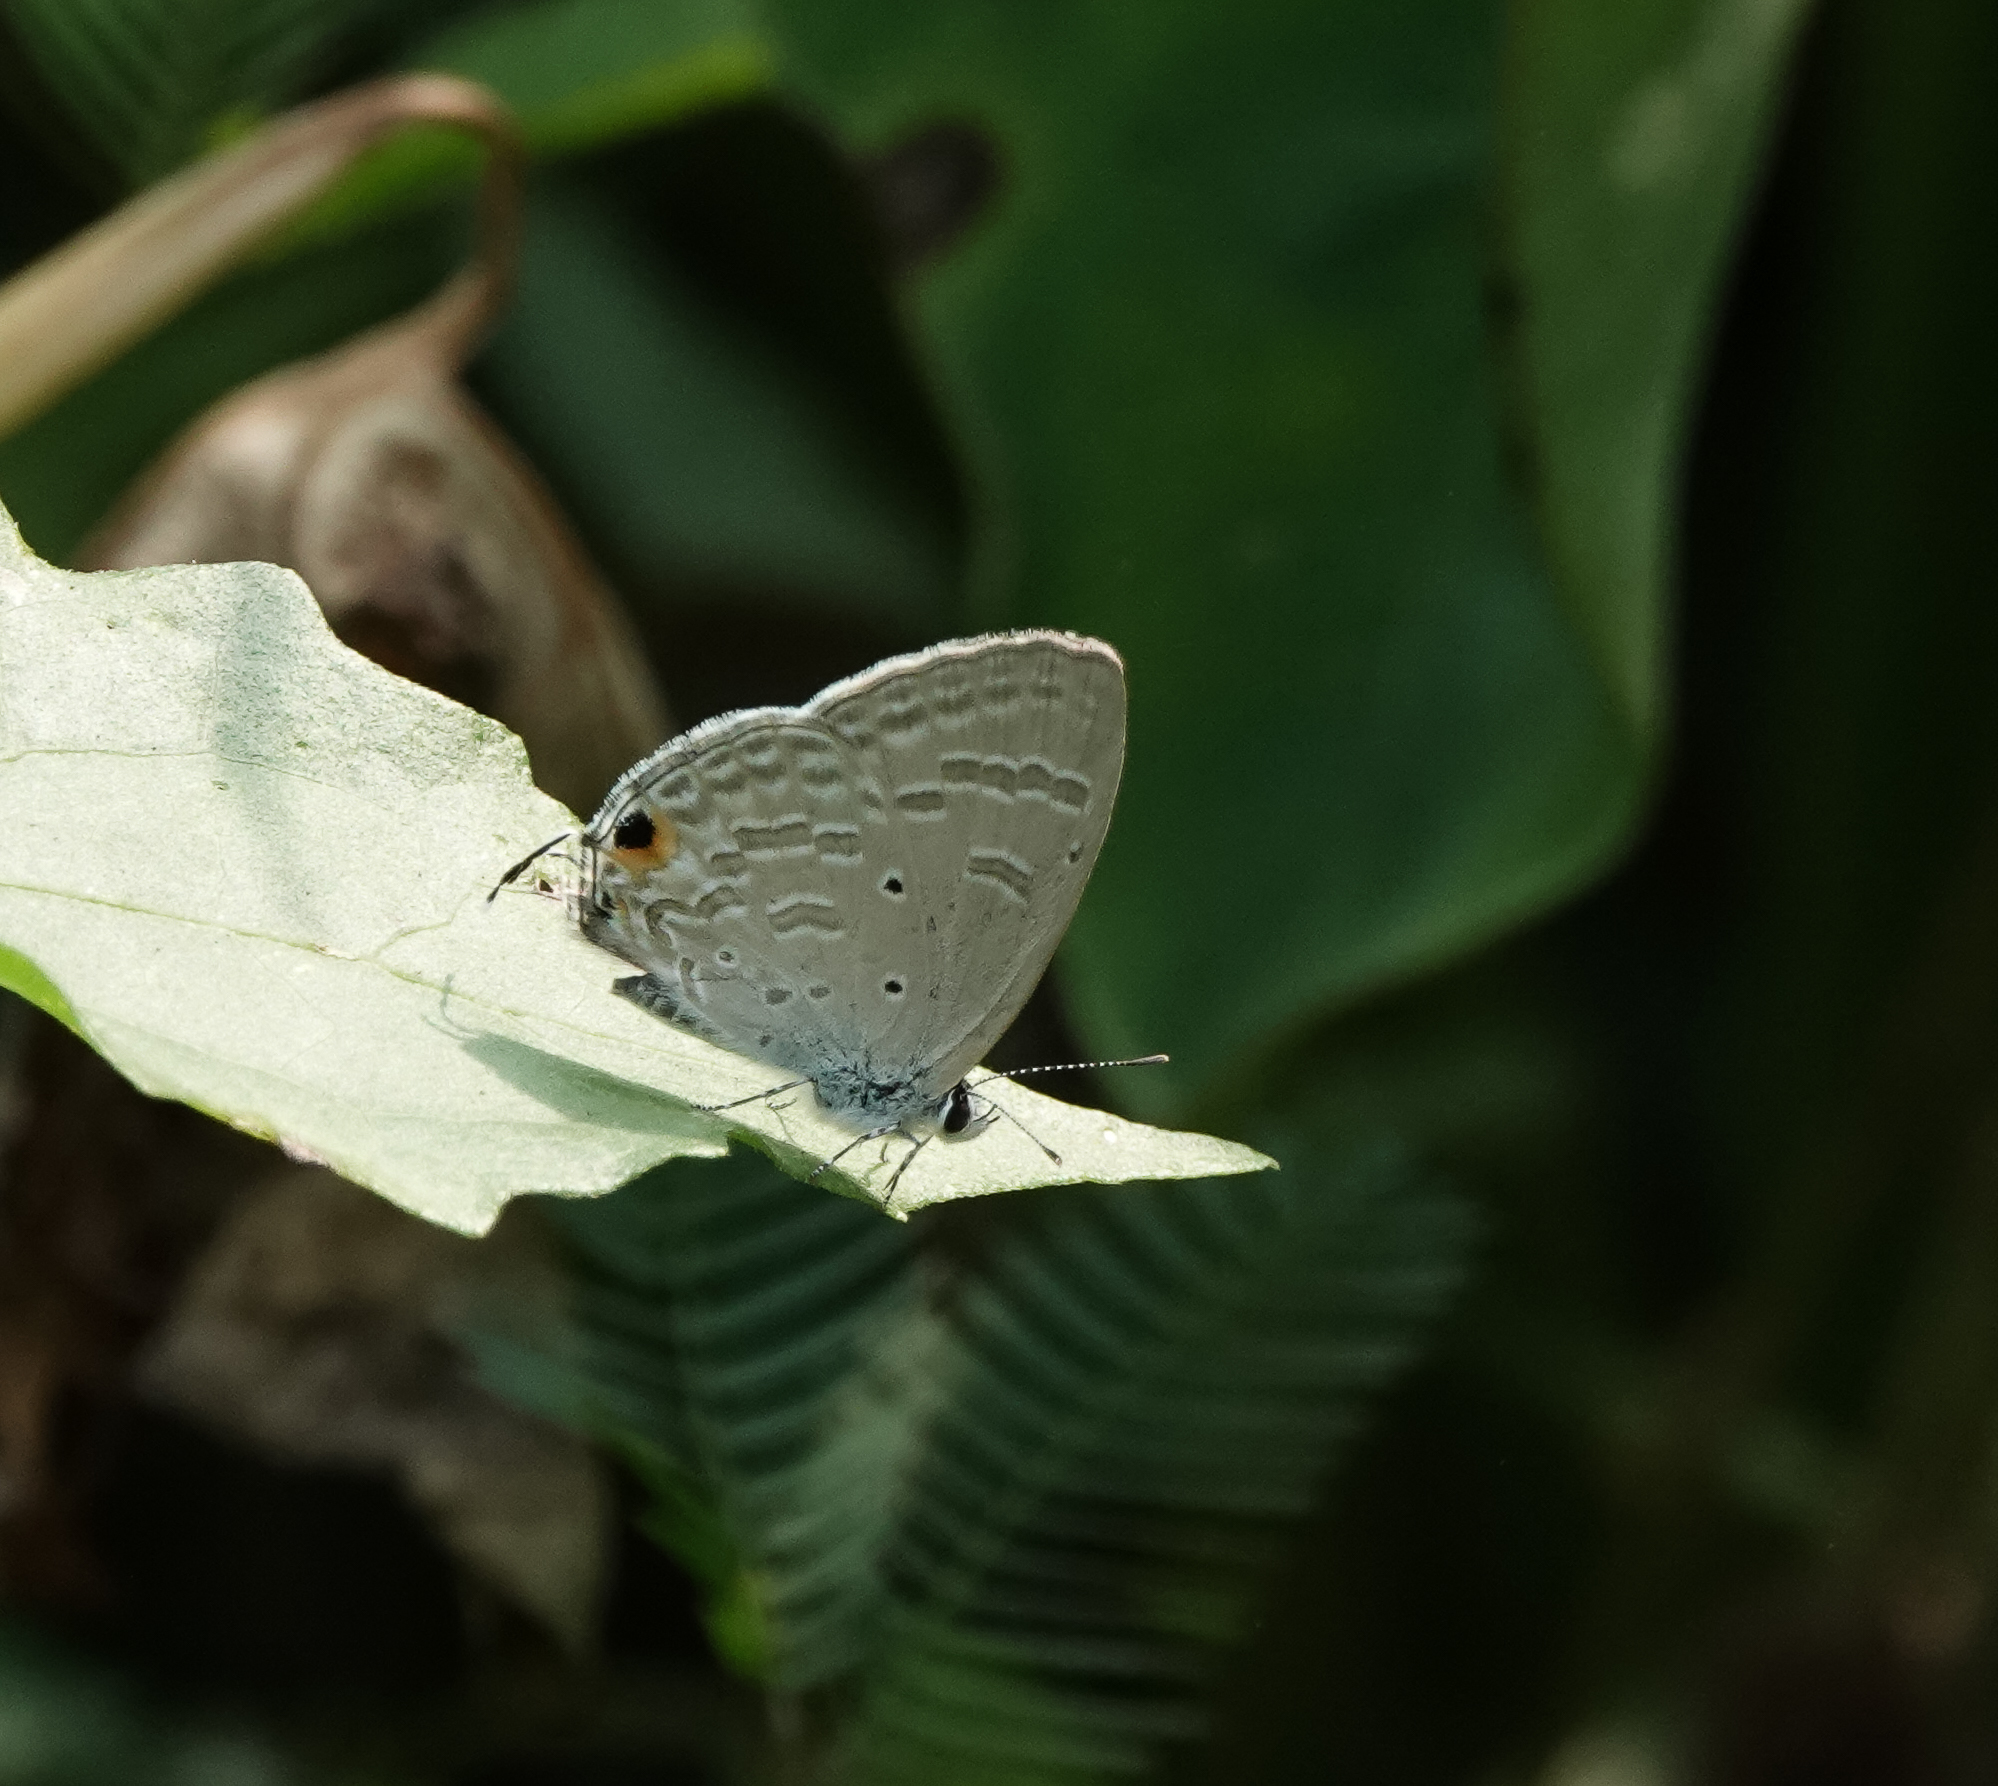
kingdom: Animalia
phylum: Arthropoda
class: Insecta
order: Lepidoptera
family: Lycaenidae
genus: Catochrysops
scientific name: Catochrysops strabo
